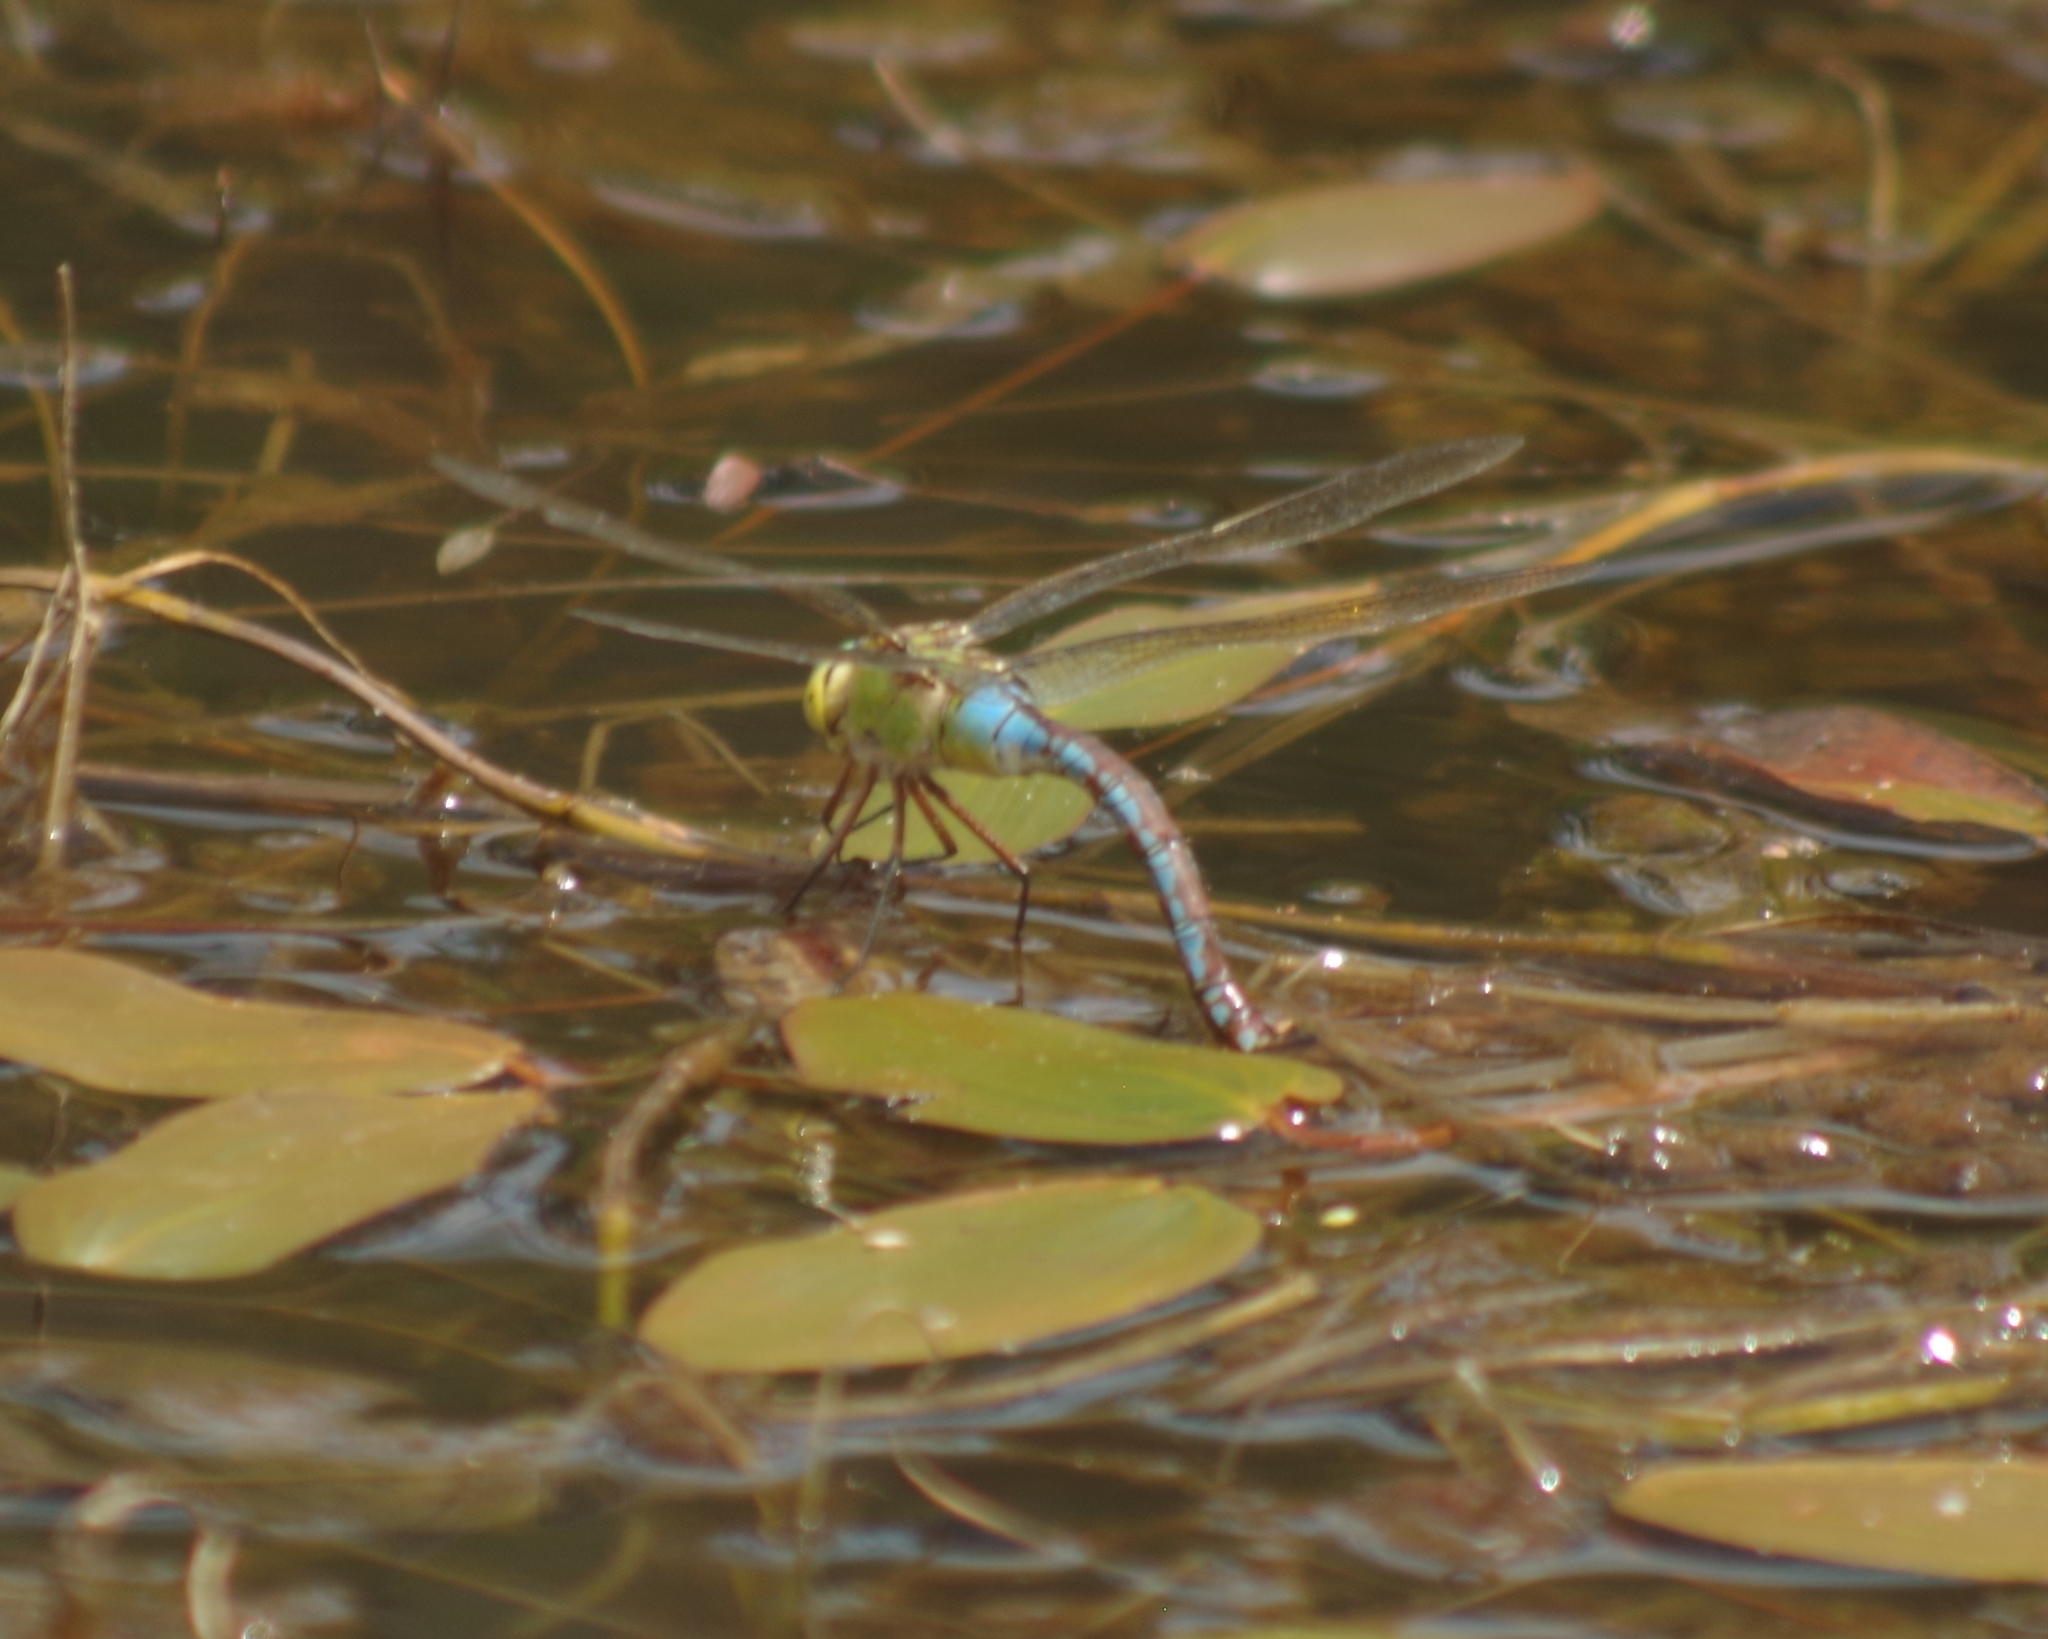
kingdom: Animalia
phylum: Arthropoda
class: Insecta
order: Odonata
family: Aeshnidae
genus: Anax
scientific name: Anax imperator
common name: Emperor dragonfly
